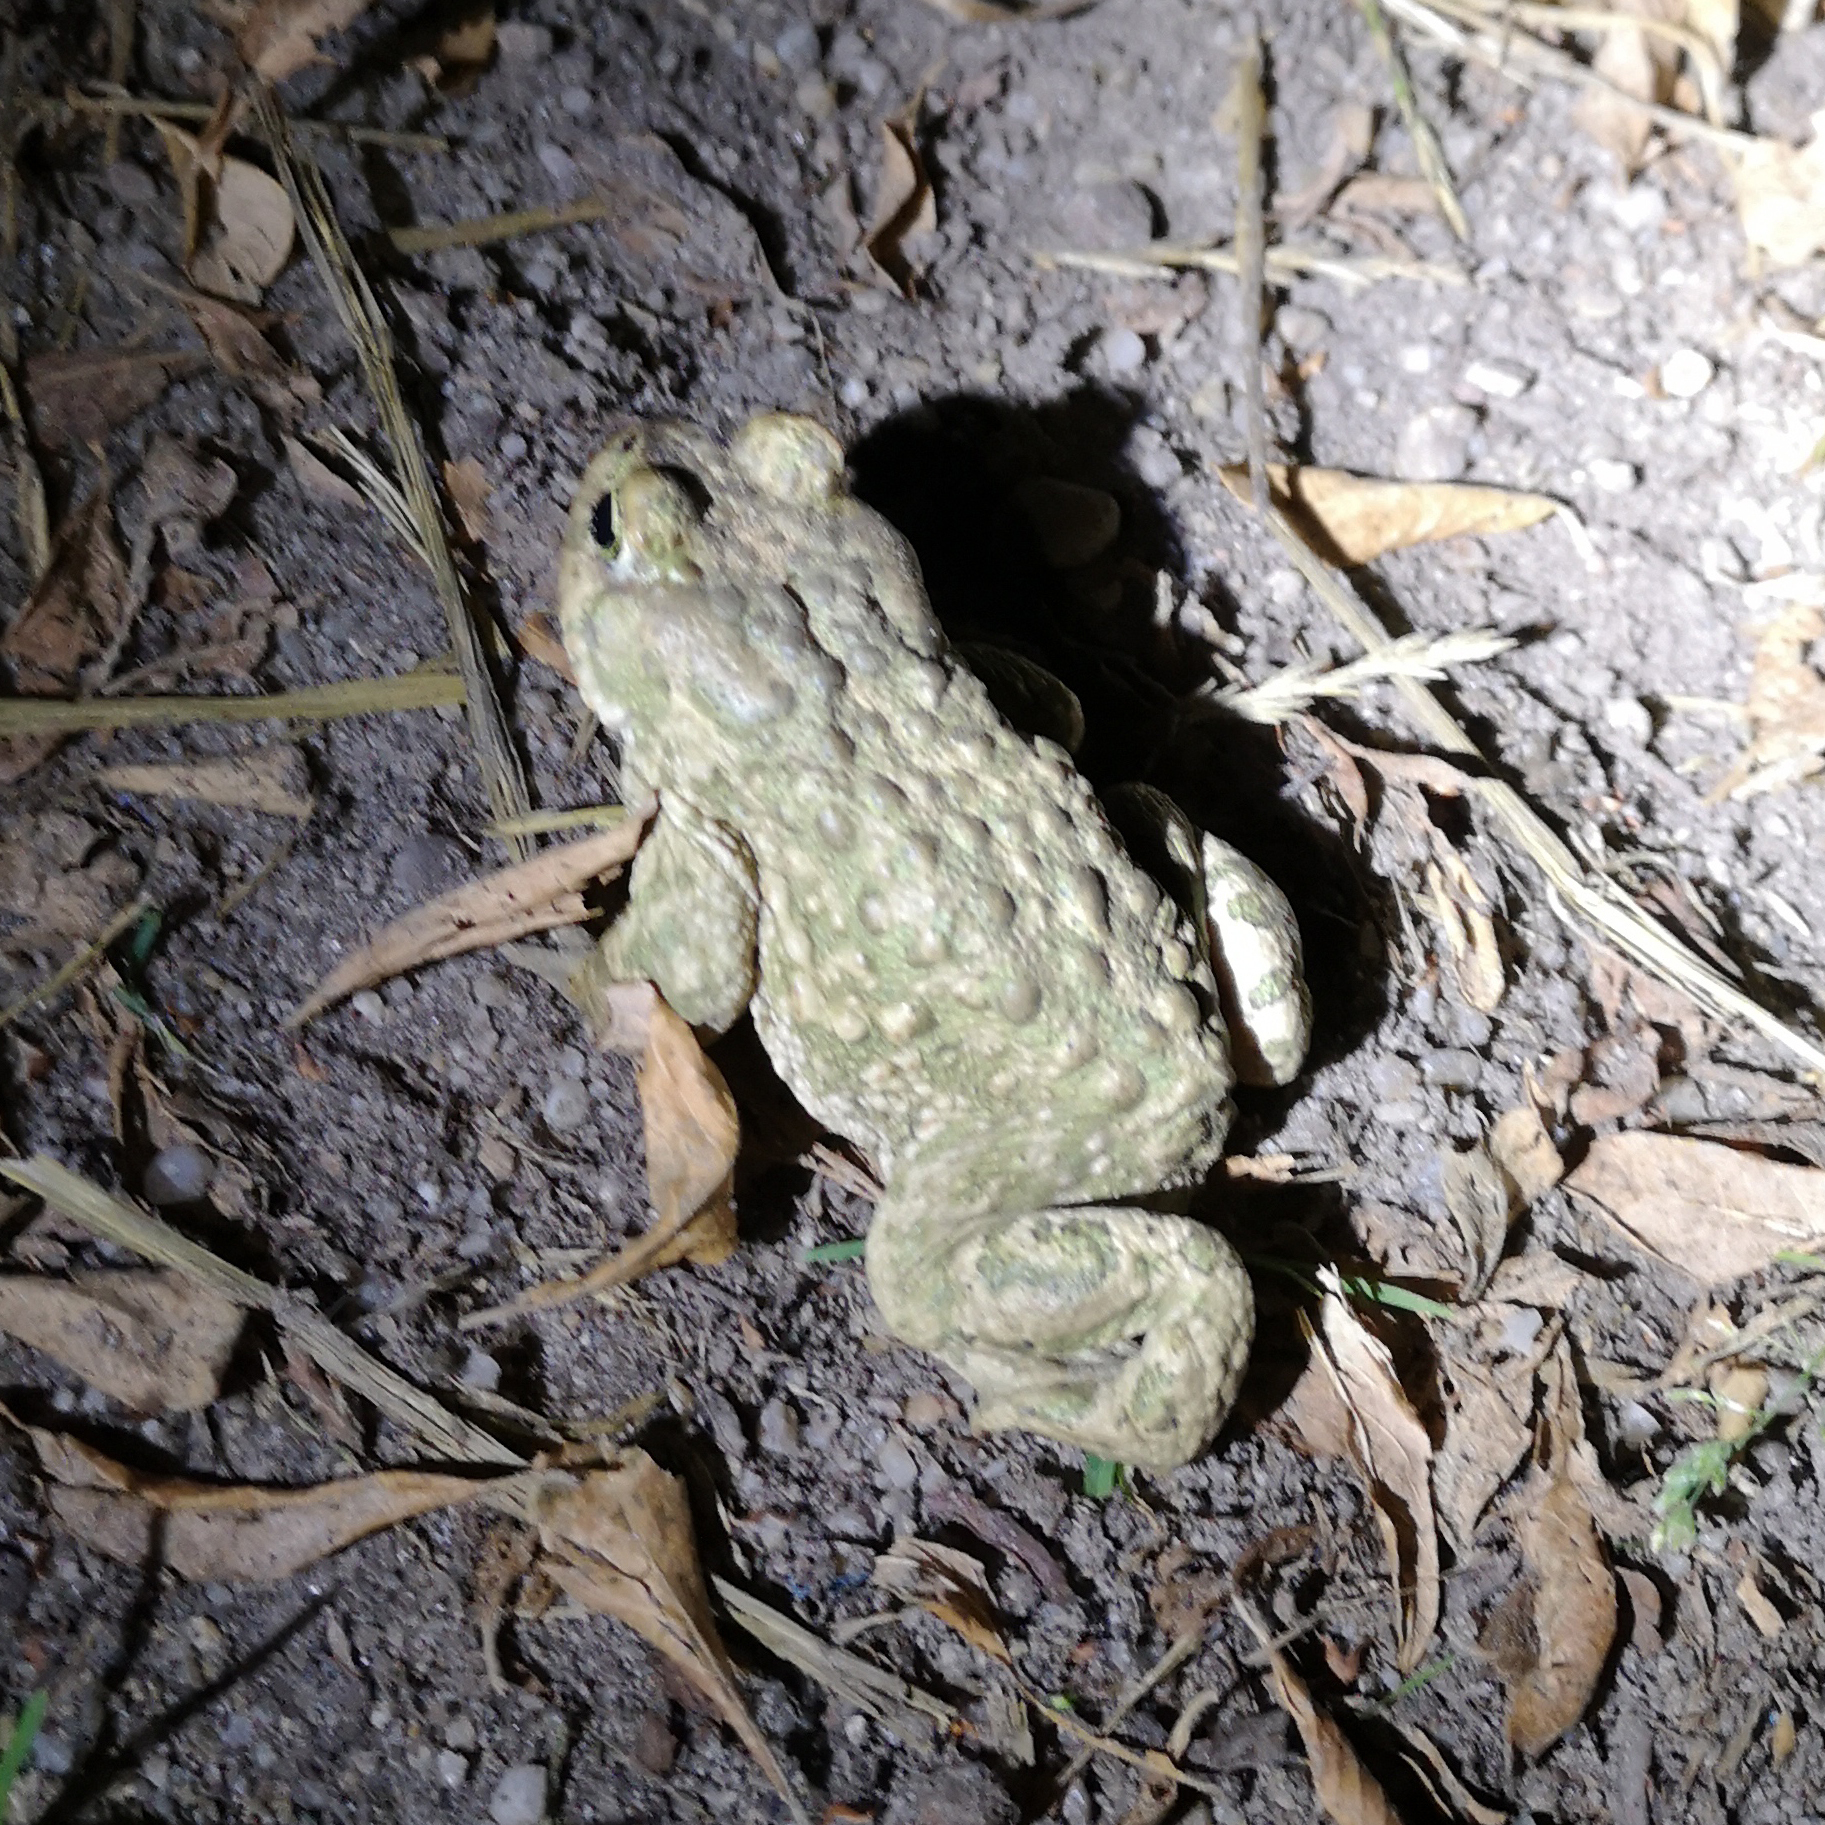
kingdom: Animalia
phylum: Chordata
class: Amphibia
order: Anura
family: Bufonidae
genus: Epidalea
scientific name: Epidalea calamita
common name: Natterjack toad
